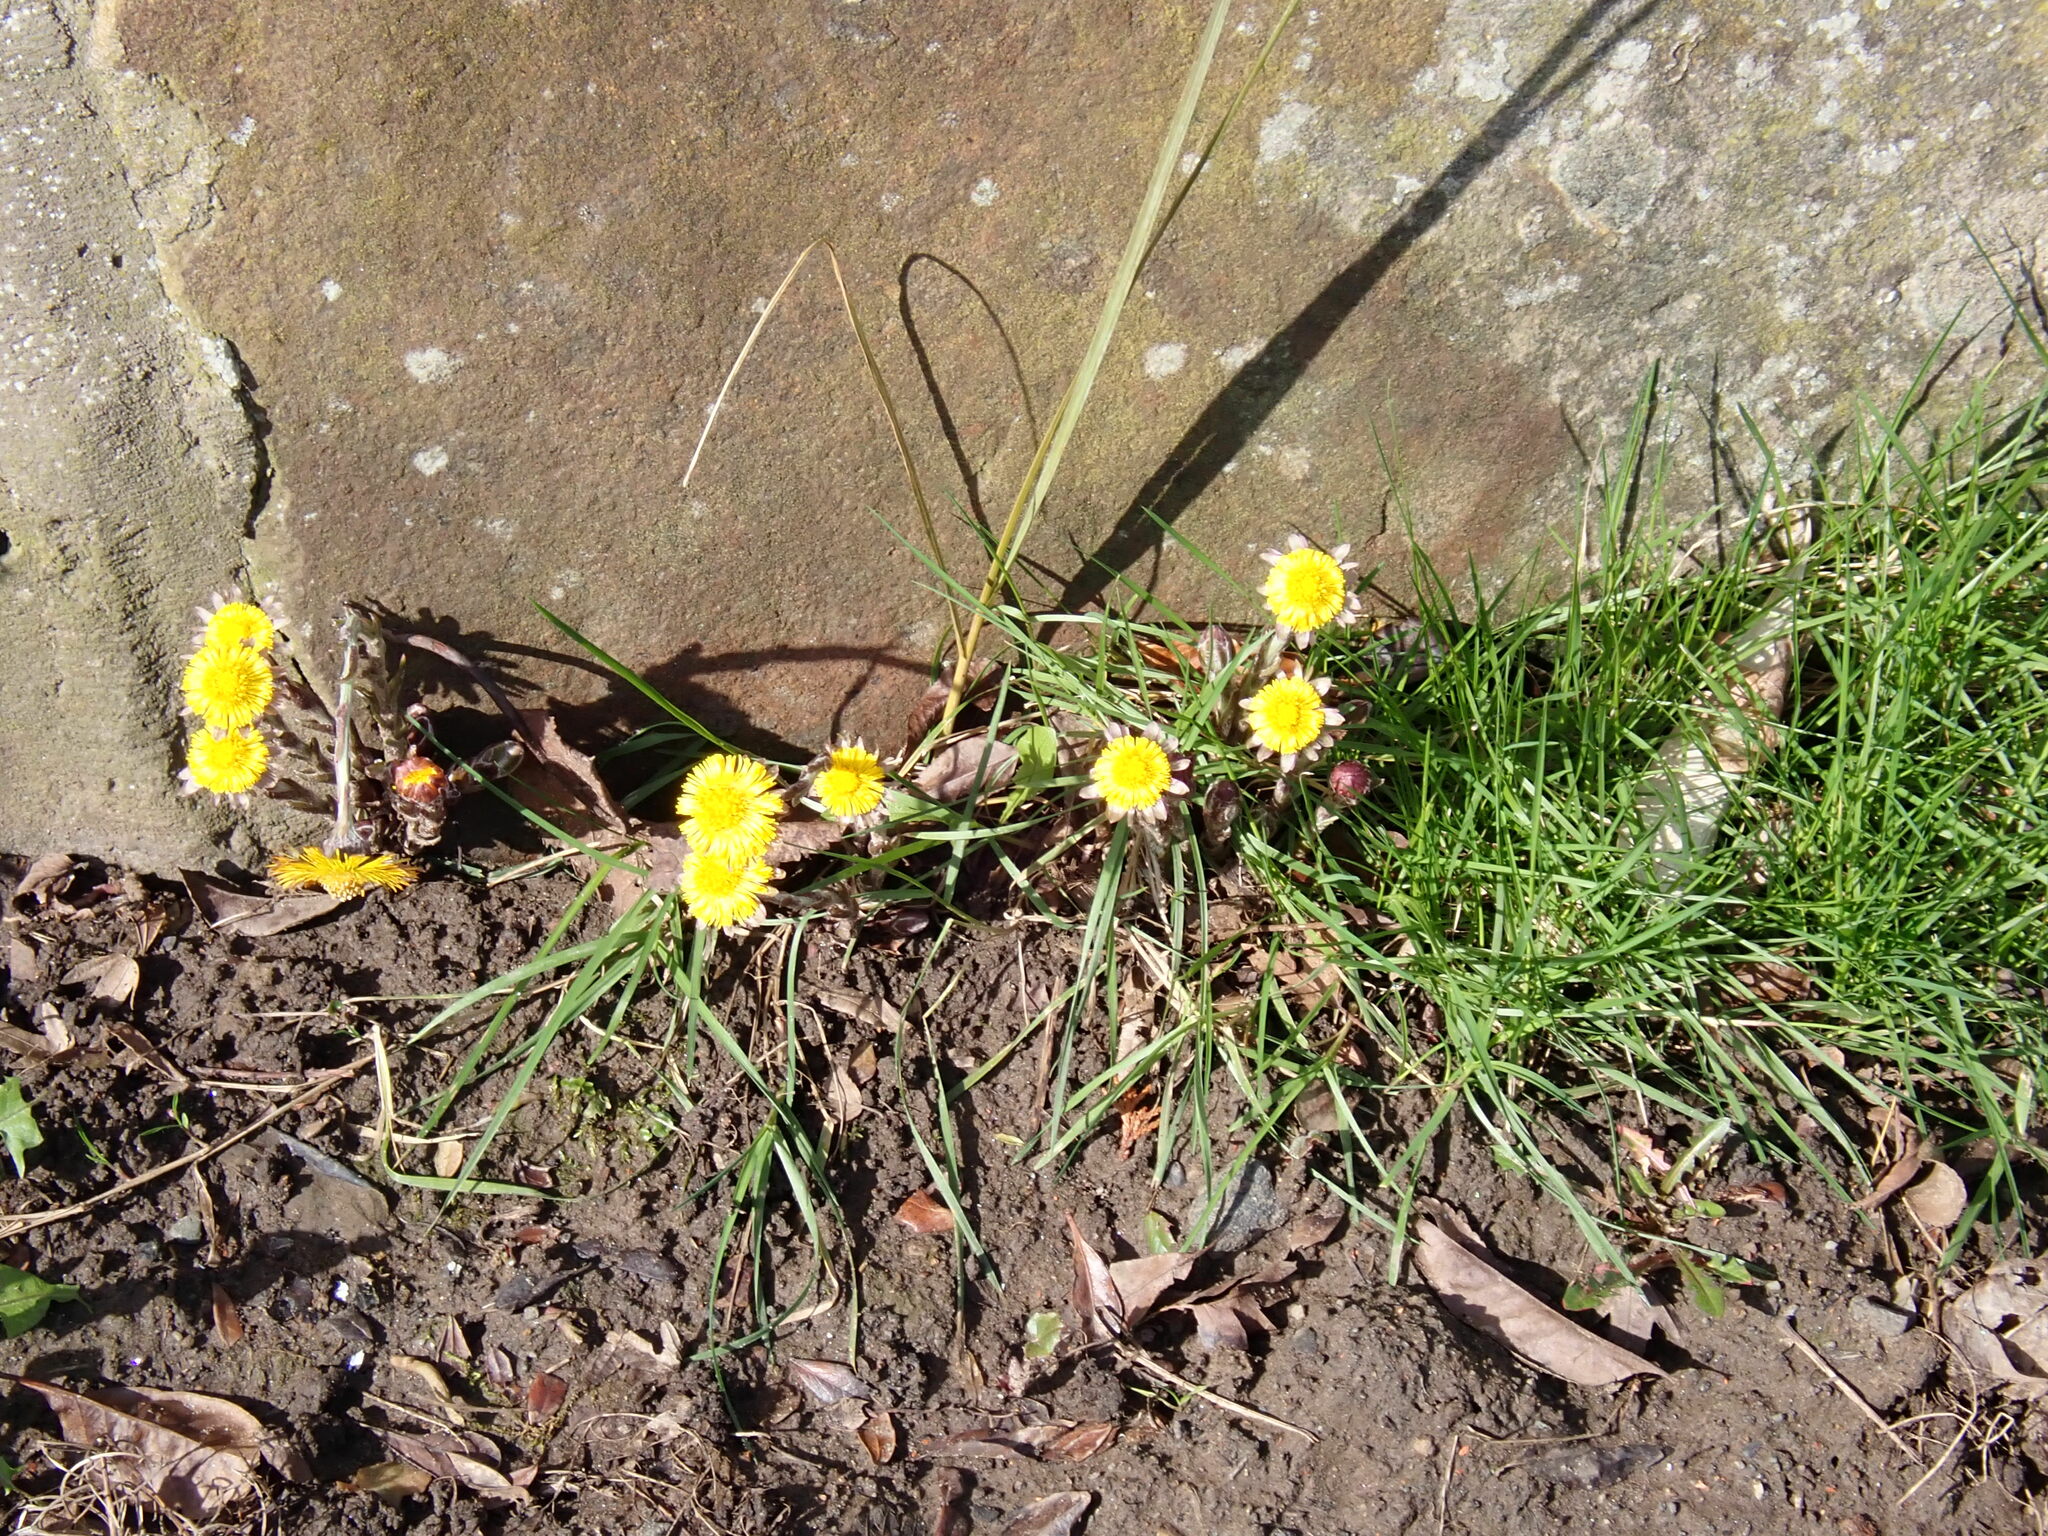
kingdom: Plantae
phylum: Tracheophyta
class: Magnoliopsida
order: Asterales
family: Asteraceae
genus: Tussilago
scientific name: Tussilago farfara
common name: Coltsfoot
